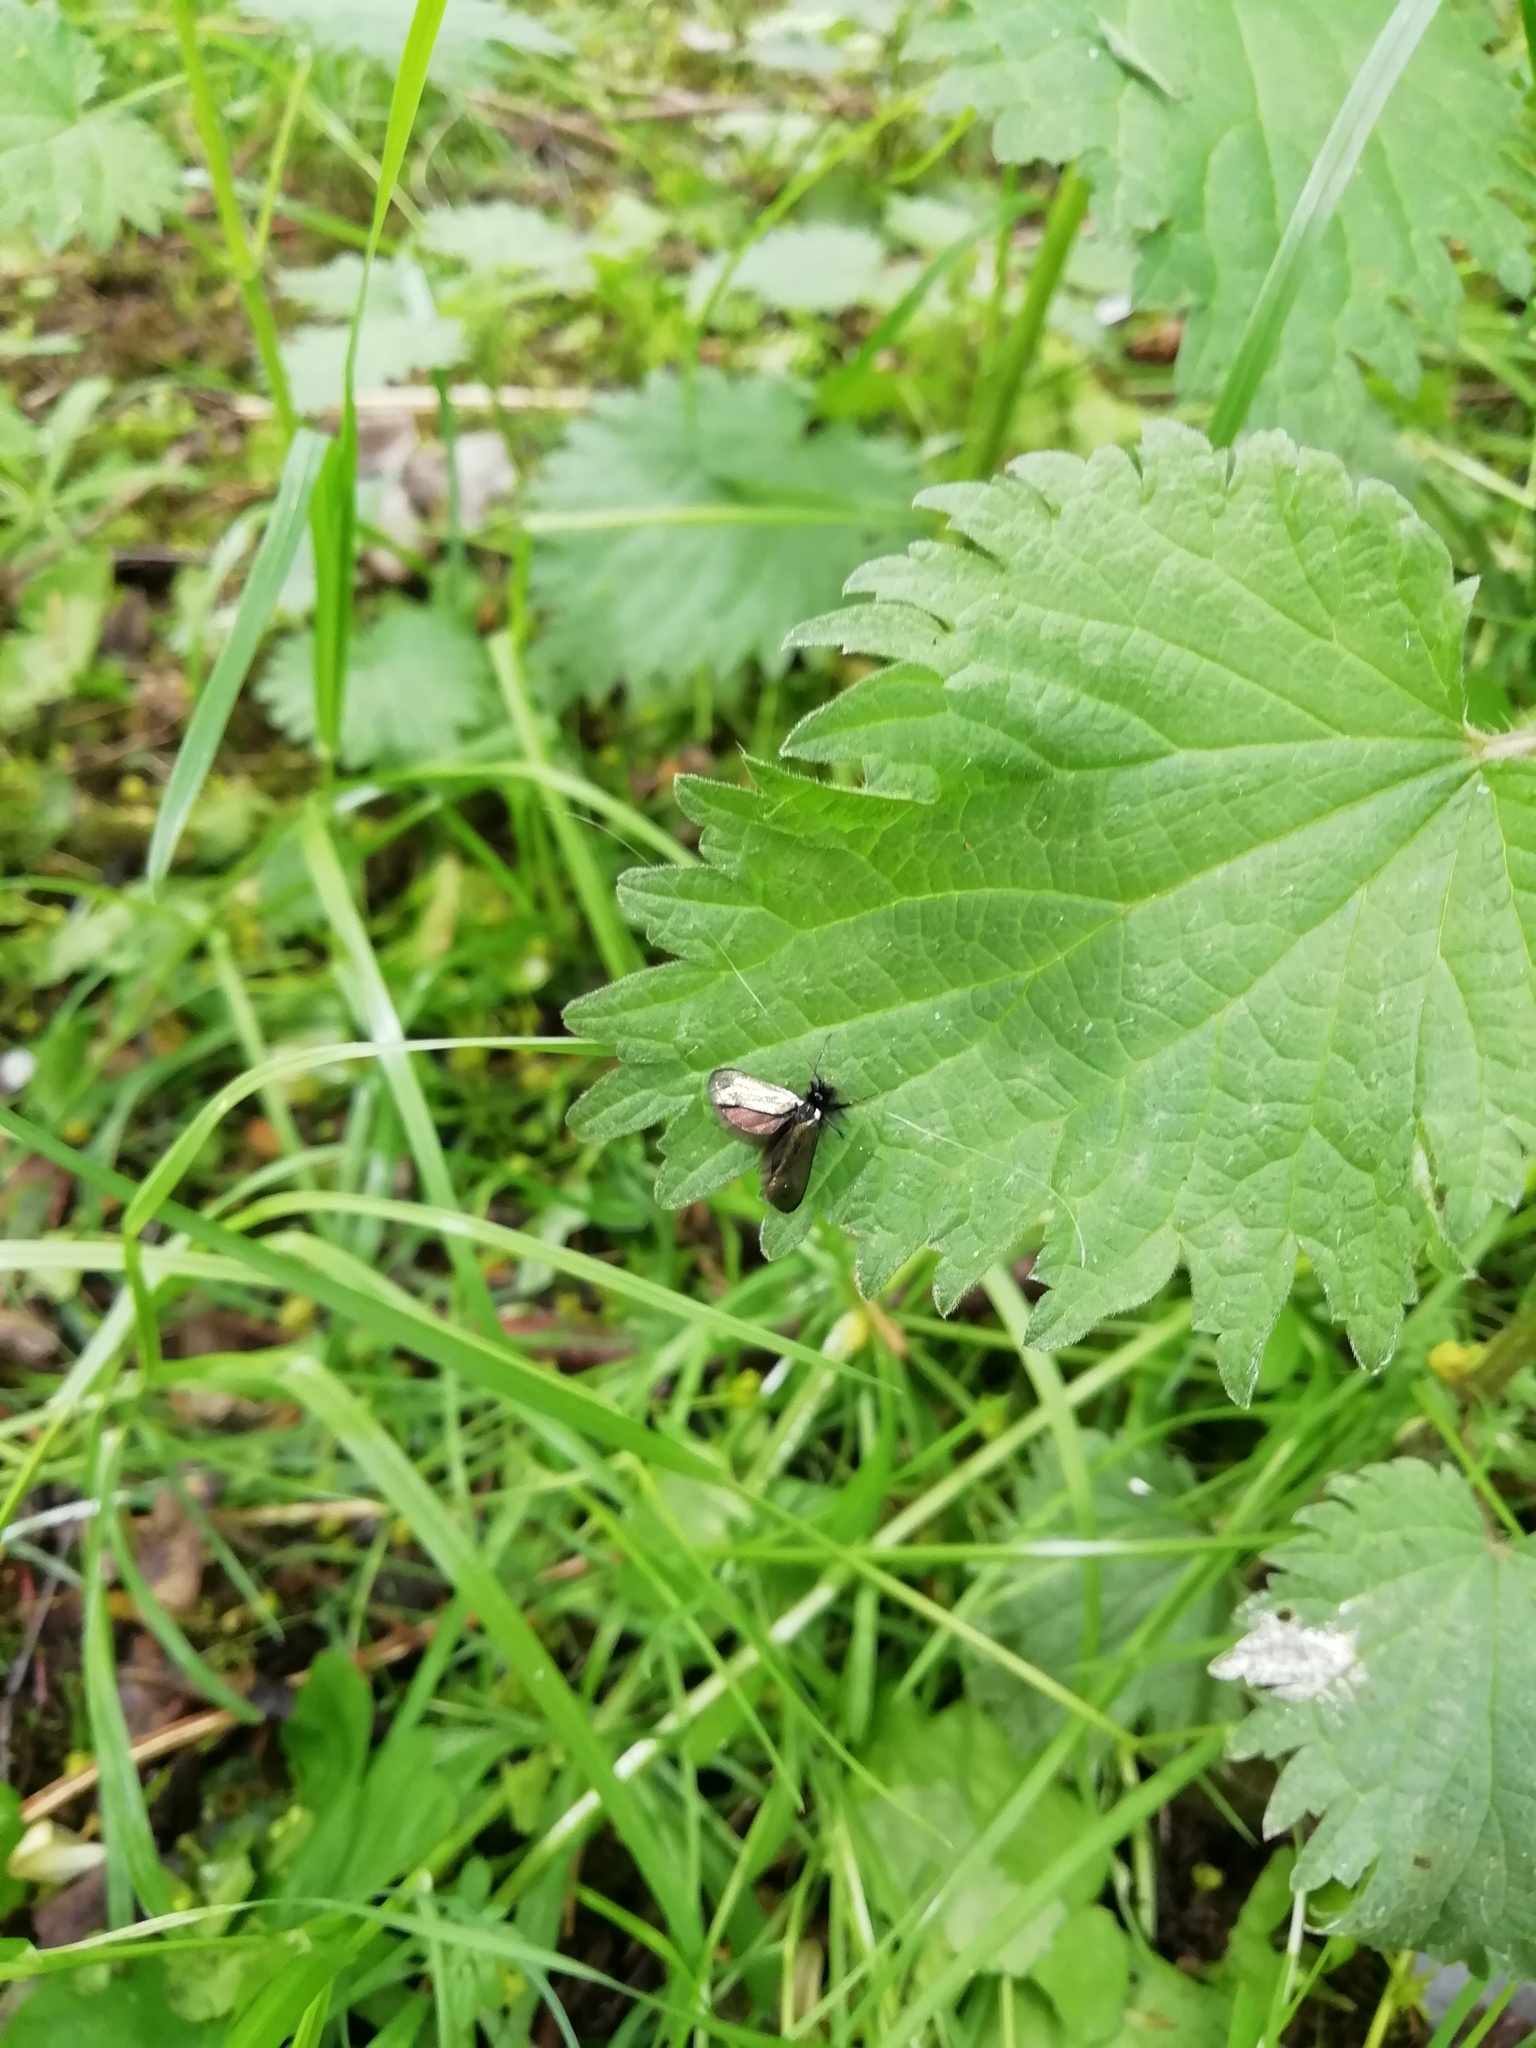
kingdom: Animalia
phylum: Arthropoda
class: Insecta
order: Lepidoptera
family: Adelidae
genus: Adela
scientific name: Adela viridella
